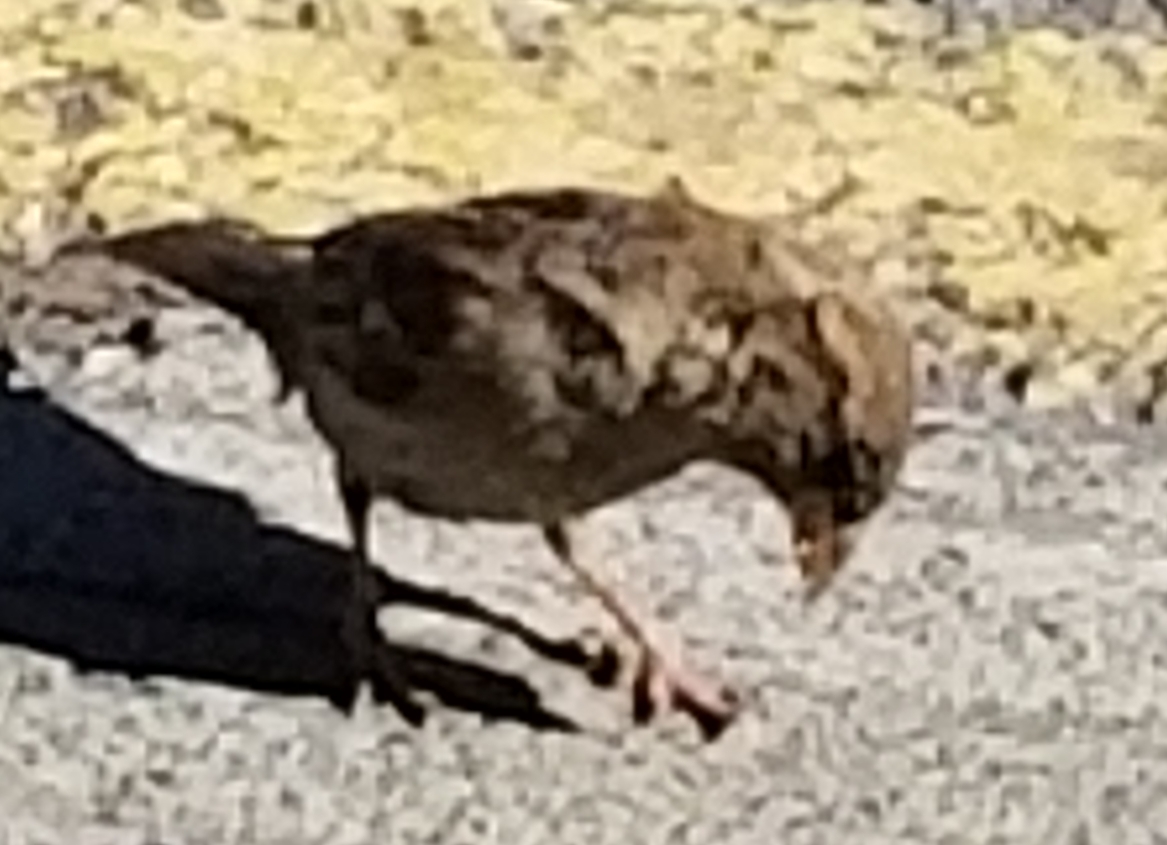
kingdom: Animalia
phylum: Chordata
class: Aves
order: Passeriformes
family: Passeridae
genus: Passer
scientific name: Passer domesticus
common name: House sparrow
